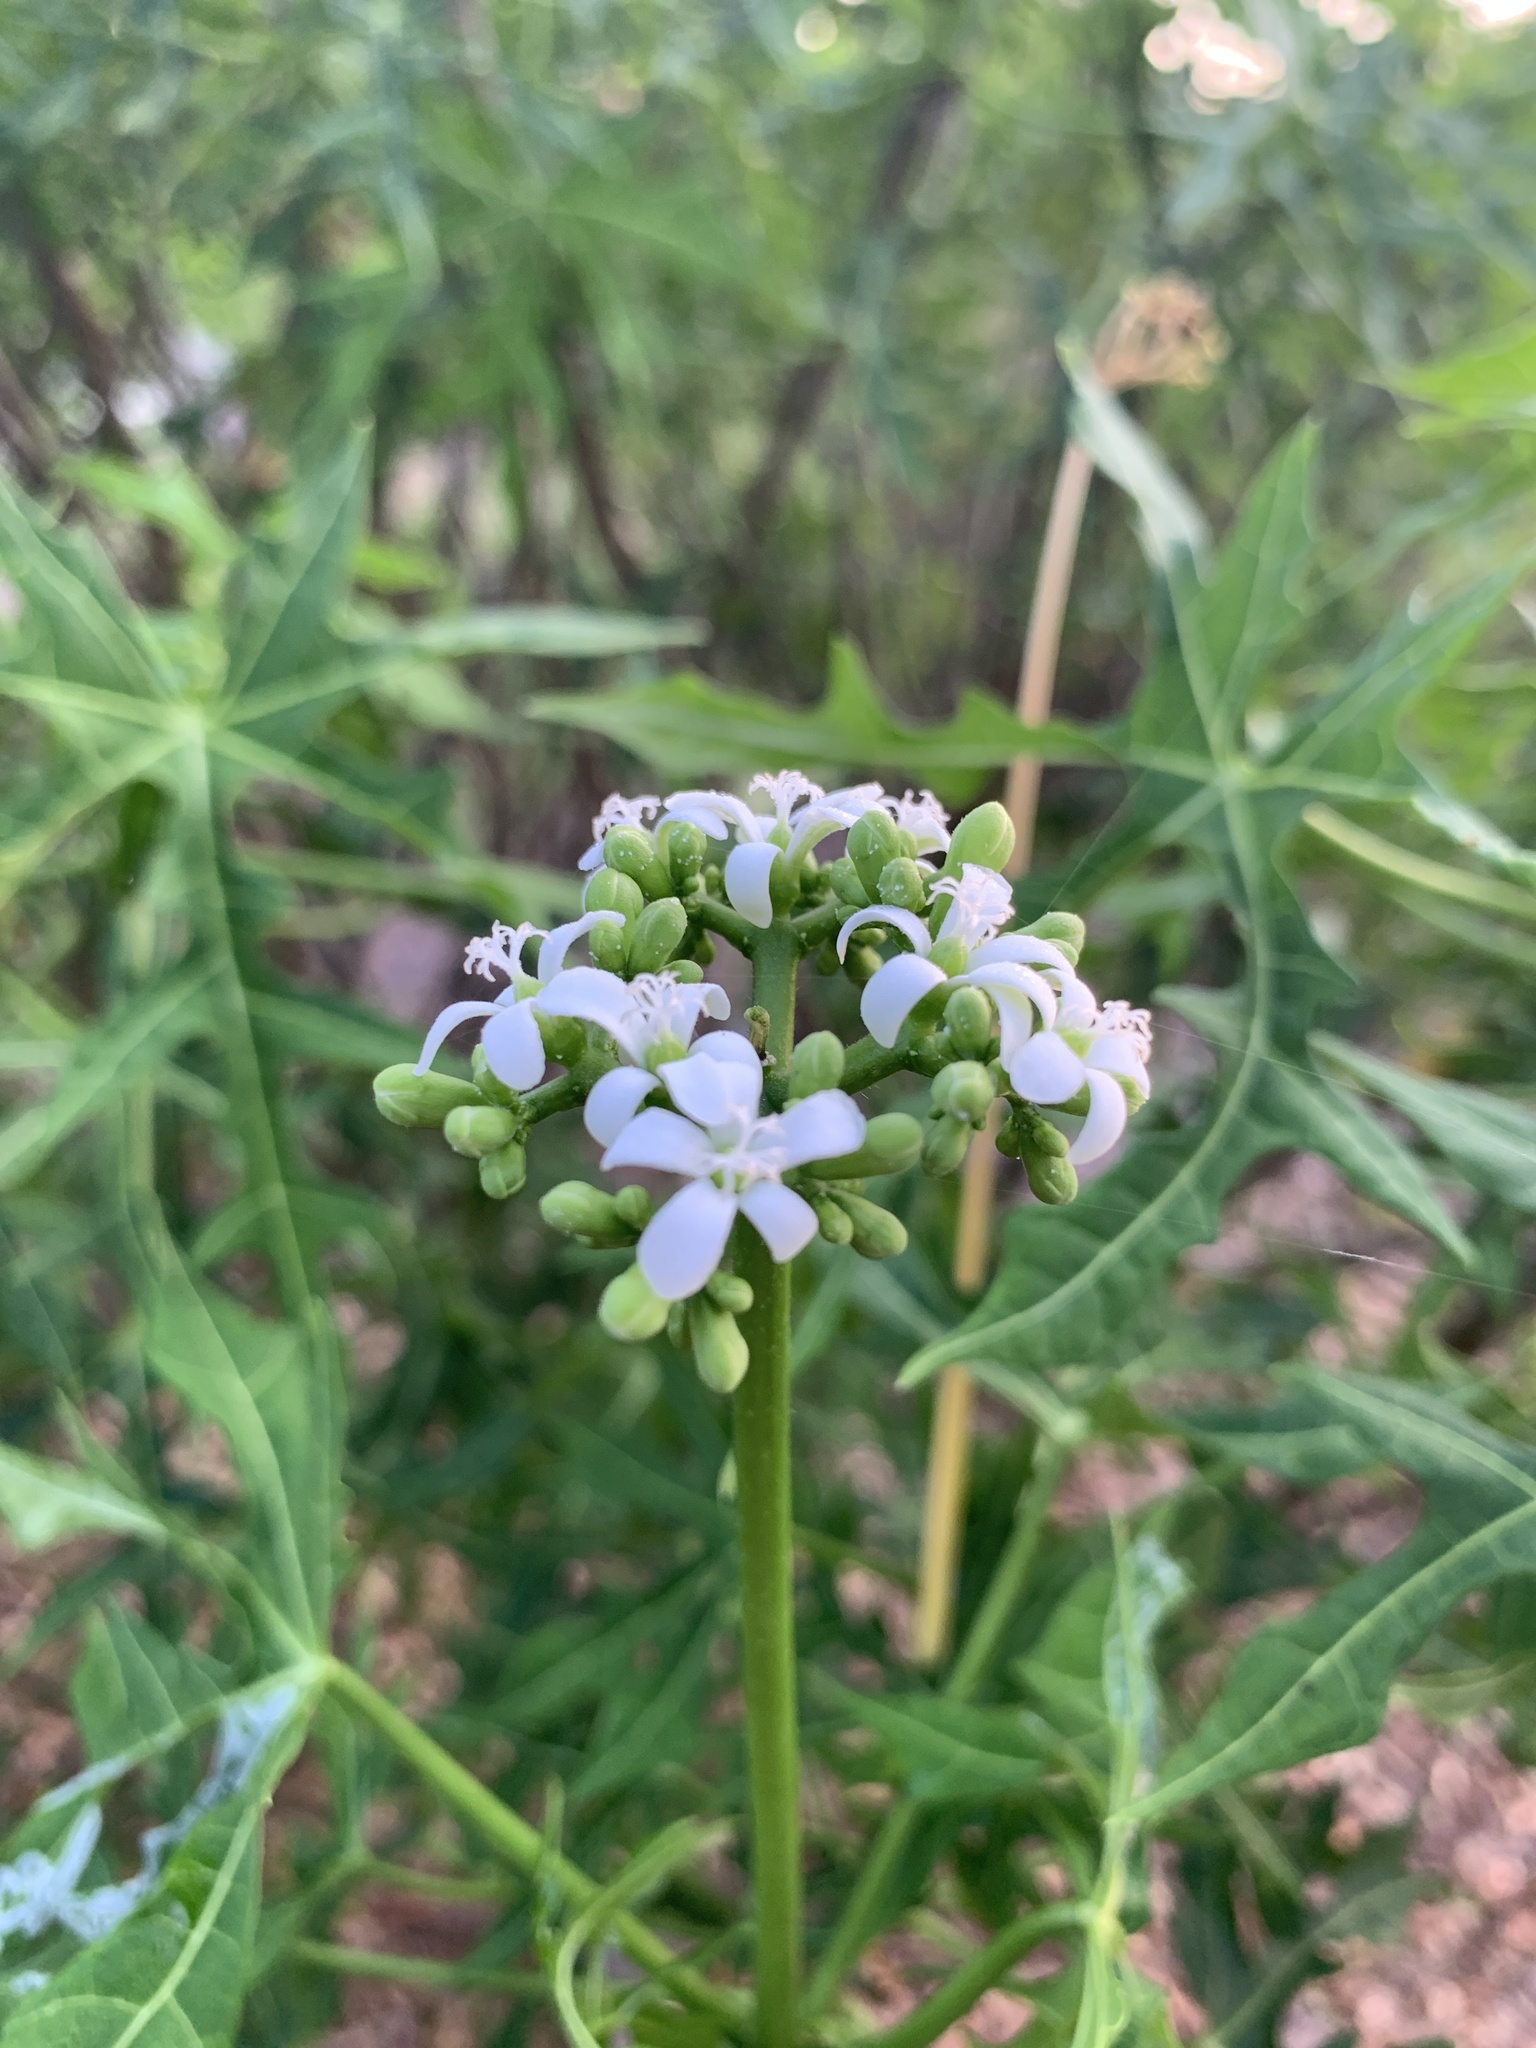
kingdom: Plantae
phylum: Tracheophyta
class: Magnoliopsida
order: Malpighiales
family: Euphorbiaceae
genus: Cnidoscolus
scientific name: Cnidoscolus aconitifolius
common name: Cabbage-star
